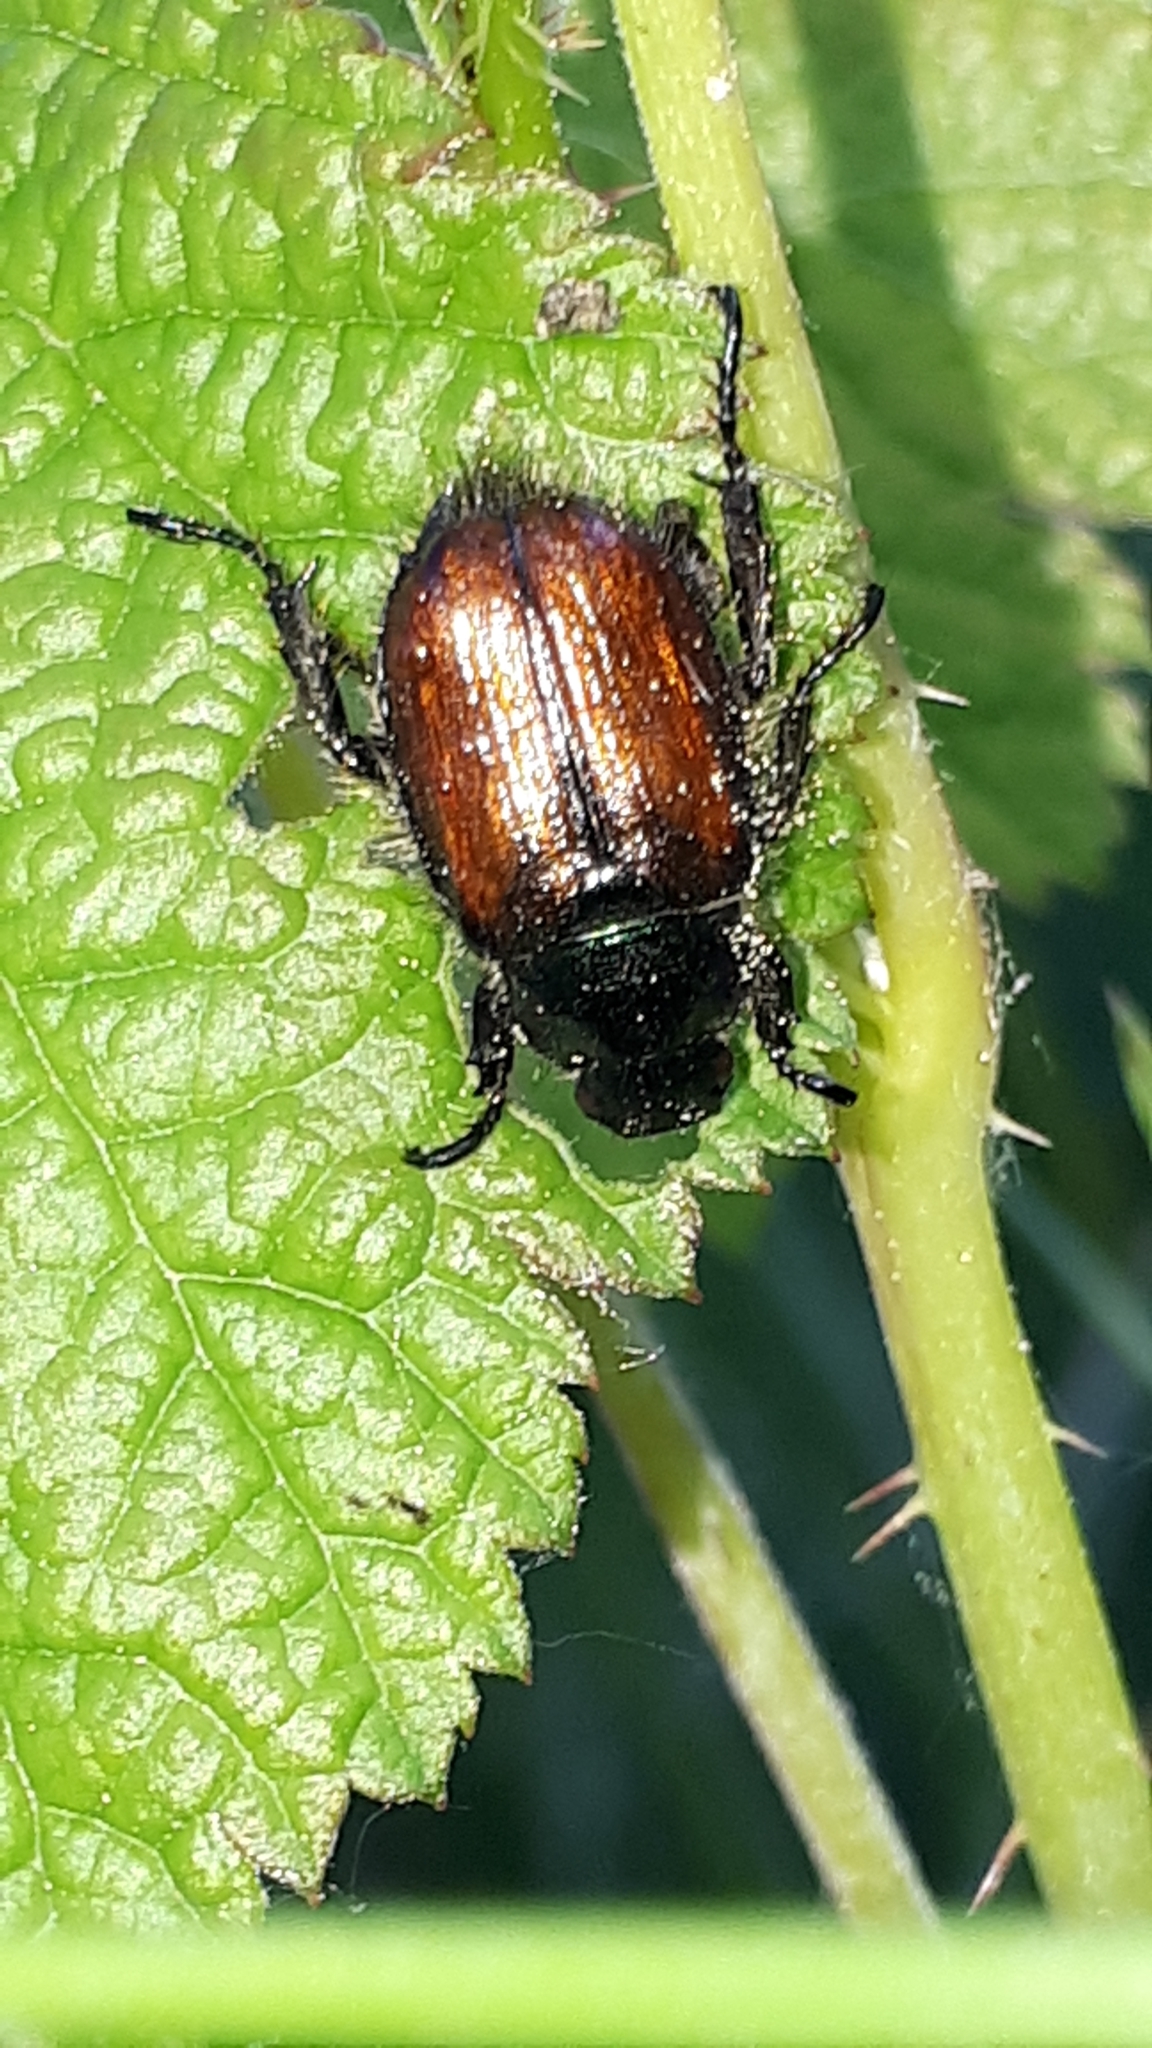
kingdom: Animalia
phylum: Arthropoda
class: Insecta
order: Coleoptera
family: Scarabaeidae
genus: Phyllopertha
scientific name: Phyllopertha horticola
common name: Garden chafer
